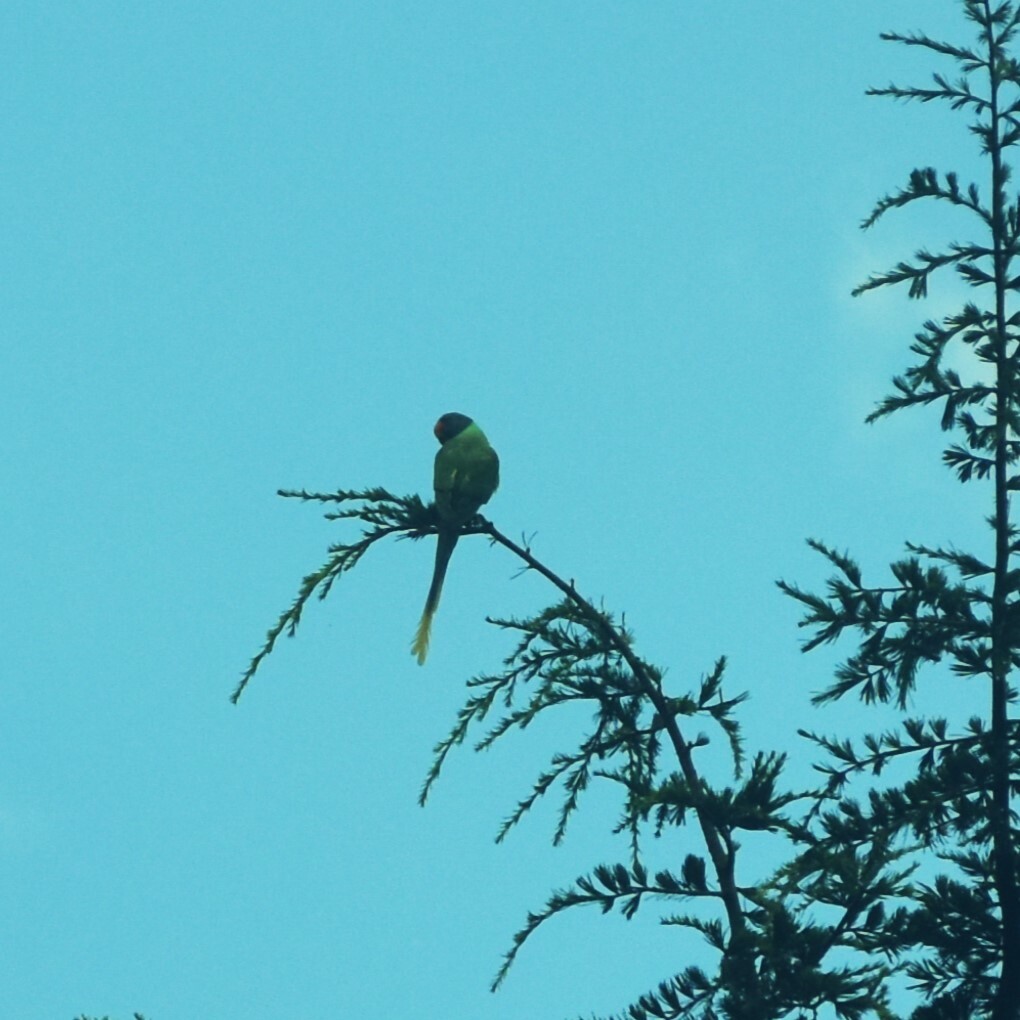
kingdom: Animalia
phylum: Chordata
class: Aves
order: Psittaciformes
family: Psittacidae
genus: Psittacula
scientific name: Psittacula himalayana
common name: Slaty-headed parakeet
